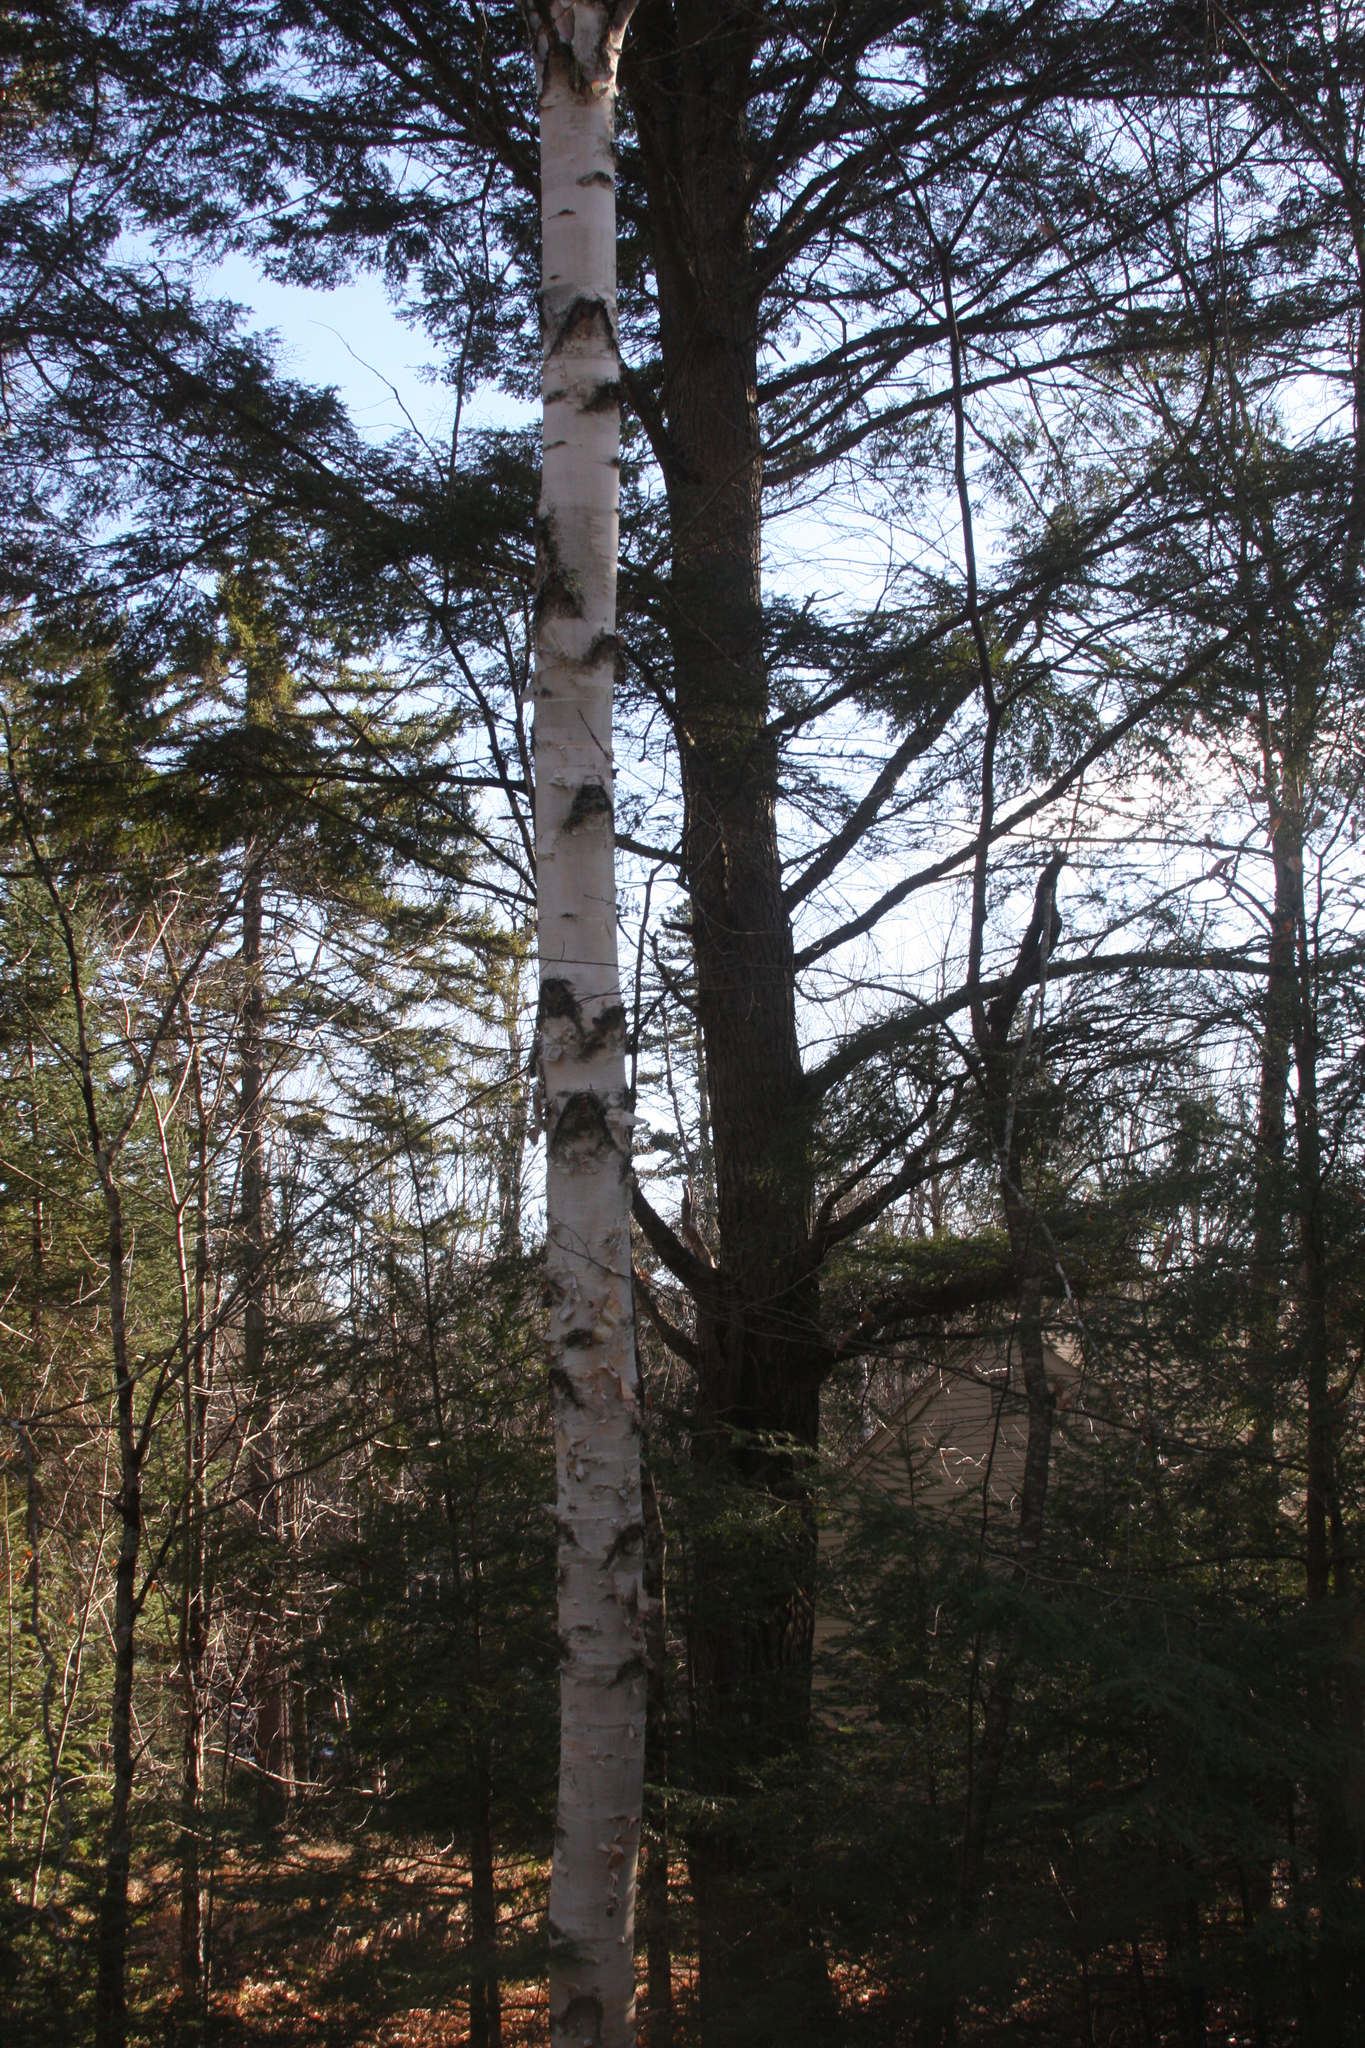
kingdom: Plantae
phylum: Tracheophyta
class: Magnoliopsida
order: Fagales
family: Betulaceae
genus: Betula
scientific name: Betula papyrifera
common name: Paper birch
